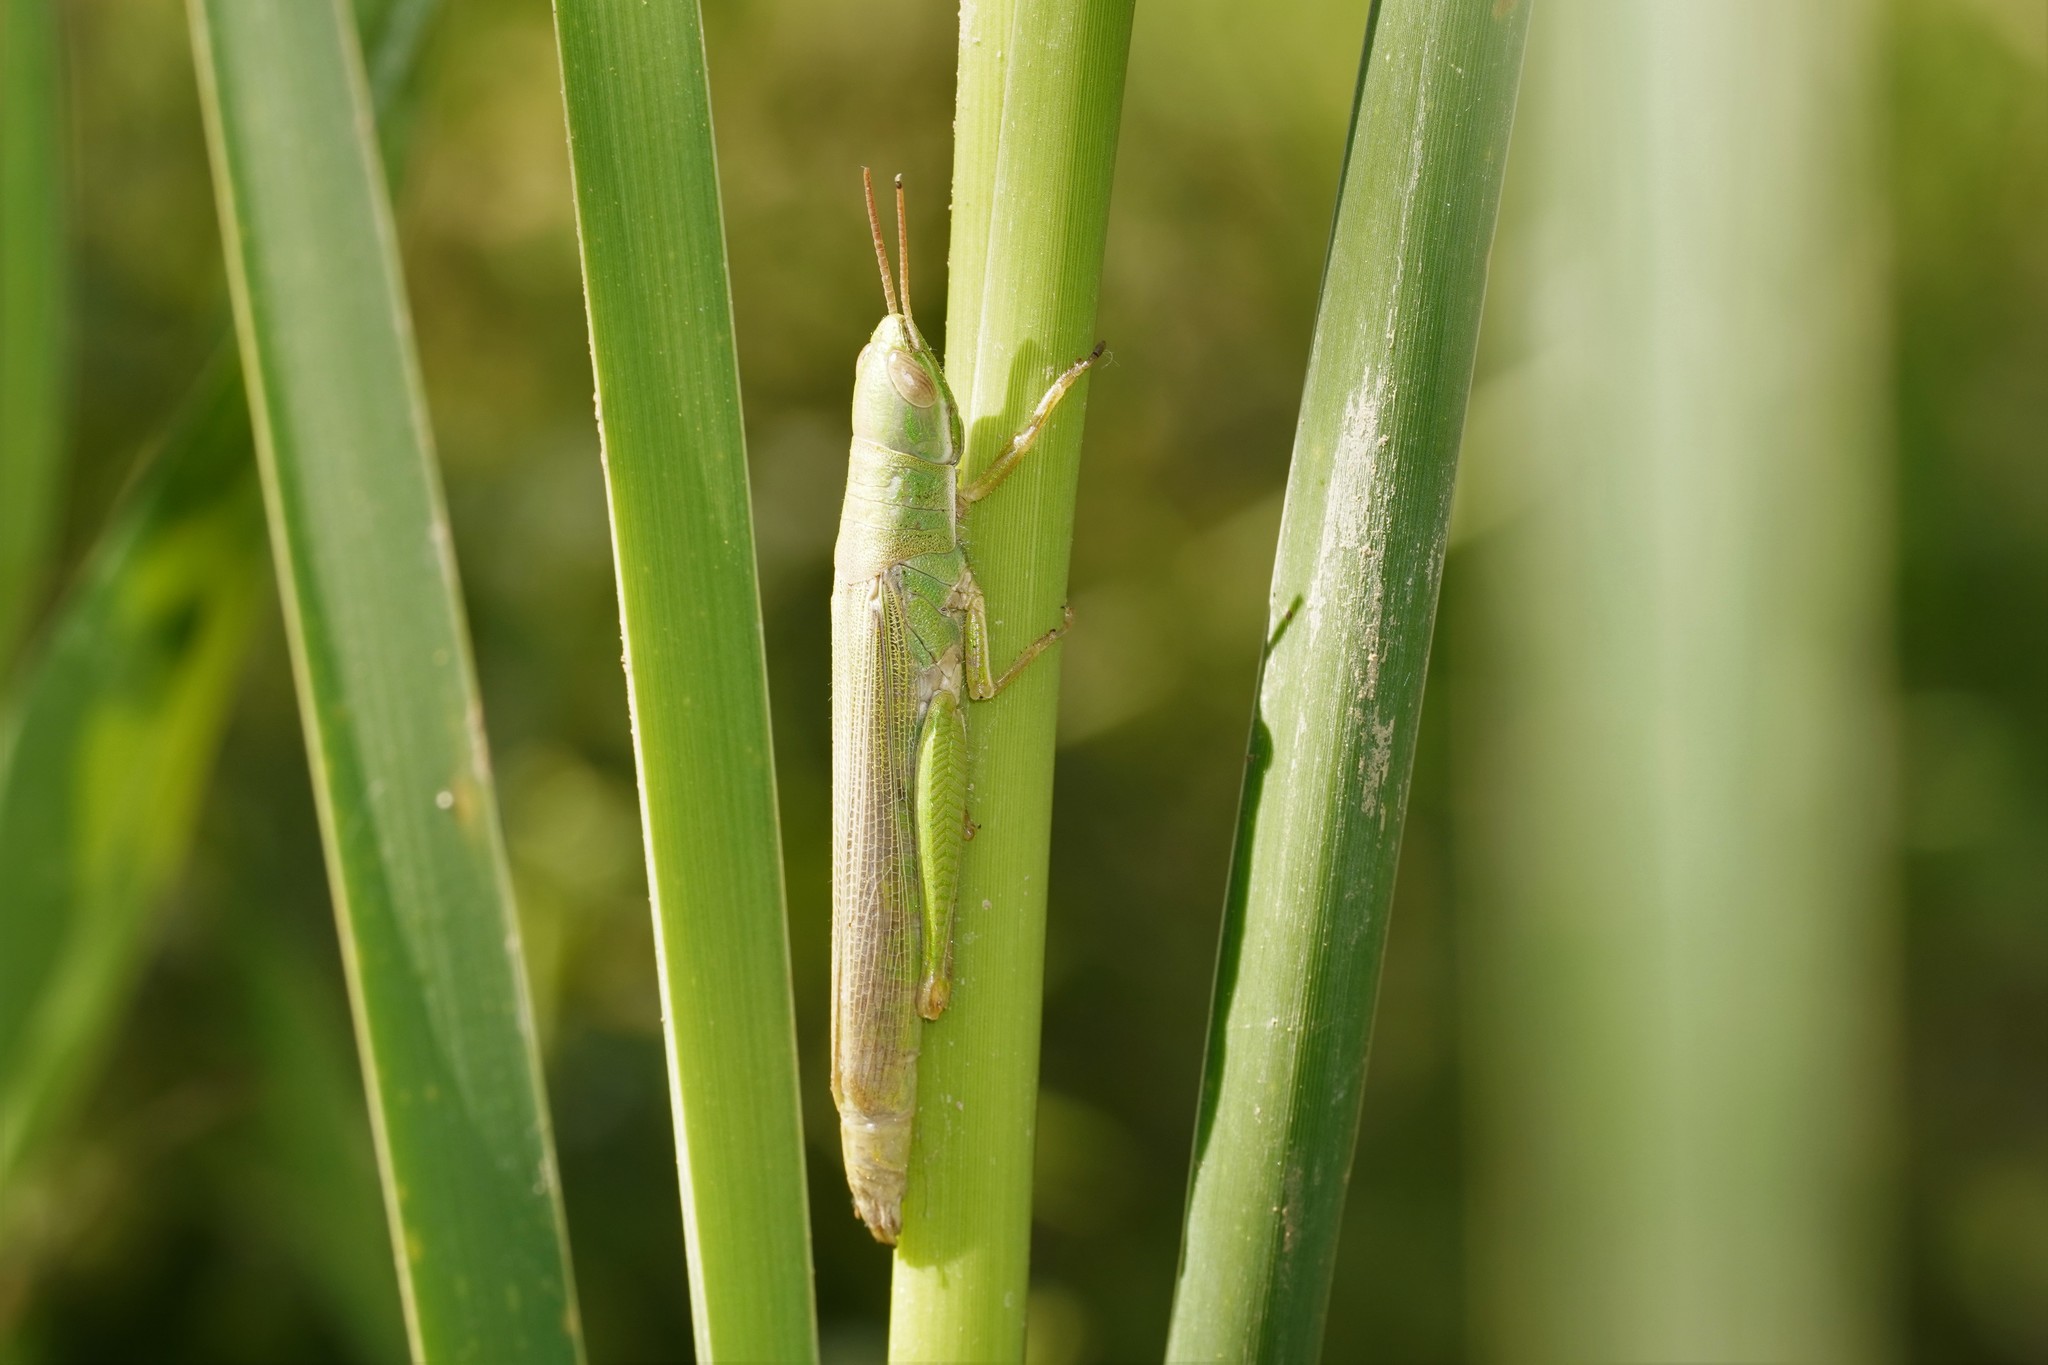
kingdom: Animalia
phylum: Arthropoda
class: Insecta
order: Orthoptera
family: Acrididae
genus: Tropidopola
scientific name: Tropidopola cylindrica
